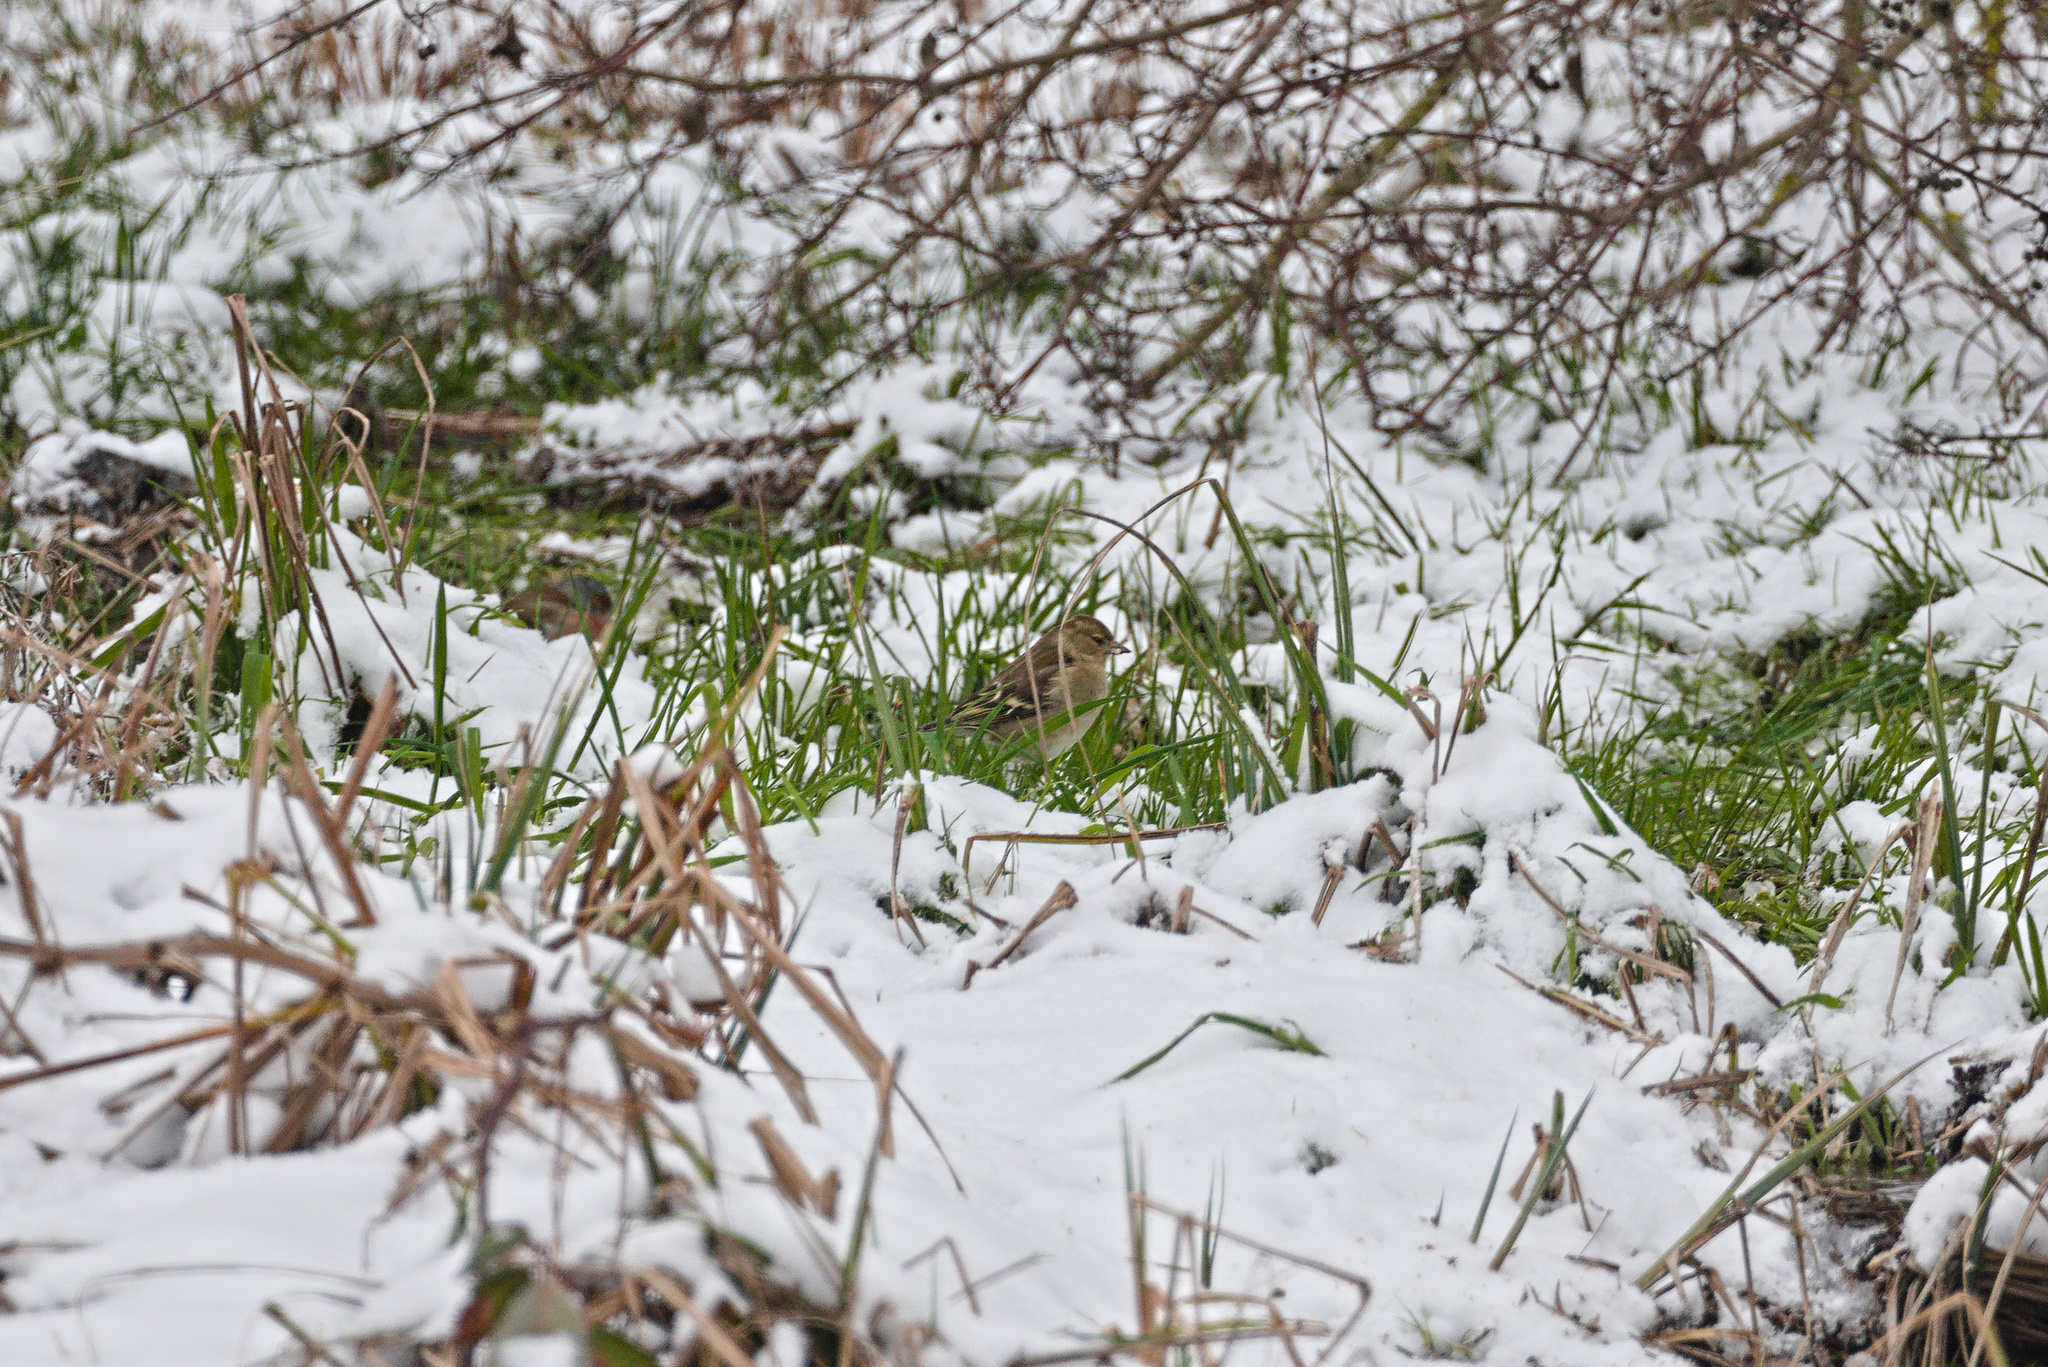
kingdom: Animalia
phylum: Chordata
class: Aves
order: Passeriformes
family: Fringillidae
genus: Fringilla
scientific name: Fringilla coelebs
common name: Common chaffinch
